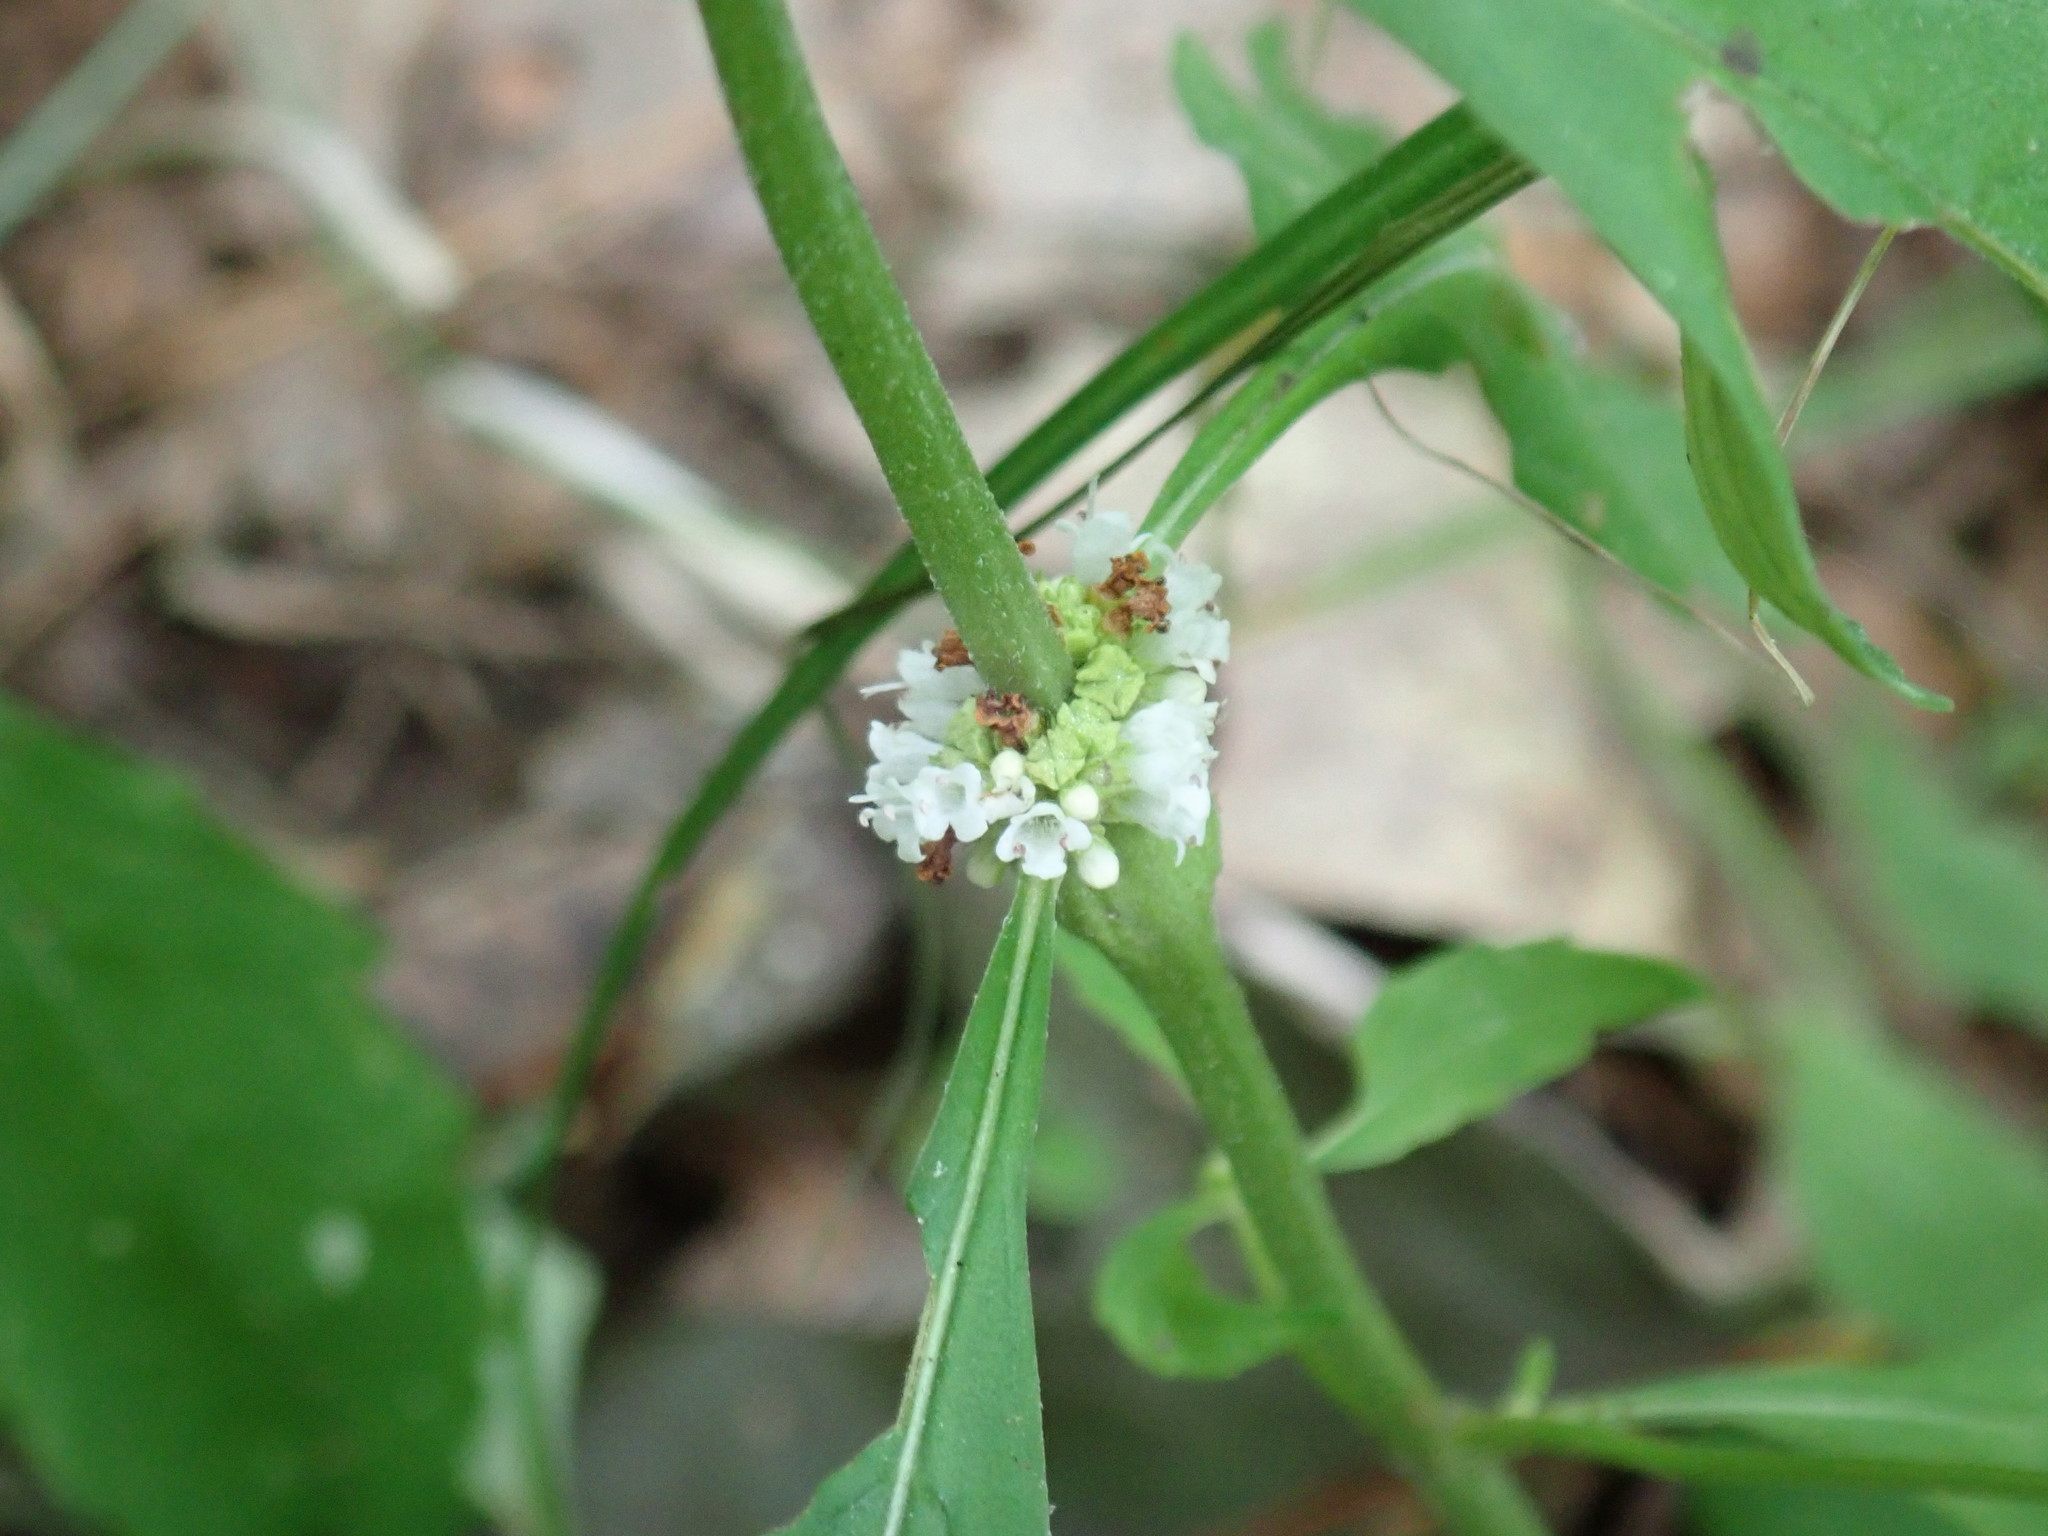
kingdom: Plantae
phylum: Tracheophyta
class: Magnoliopsida
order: Lamiales
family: Lamiaceae
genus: Lycopus
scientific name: Lycopus uniflorus
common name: Northern bugleweed
